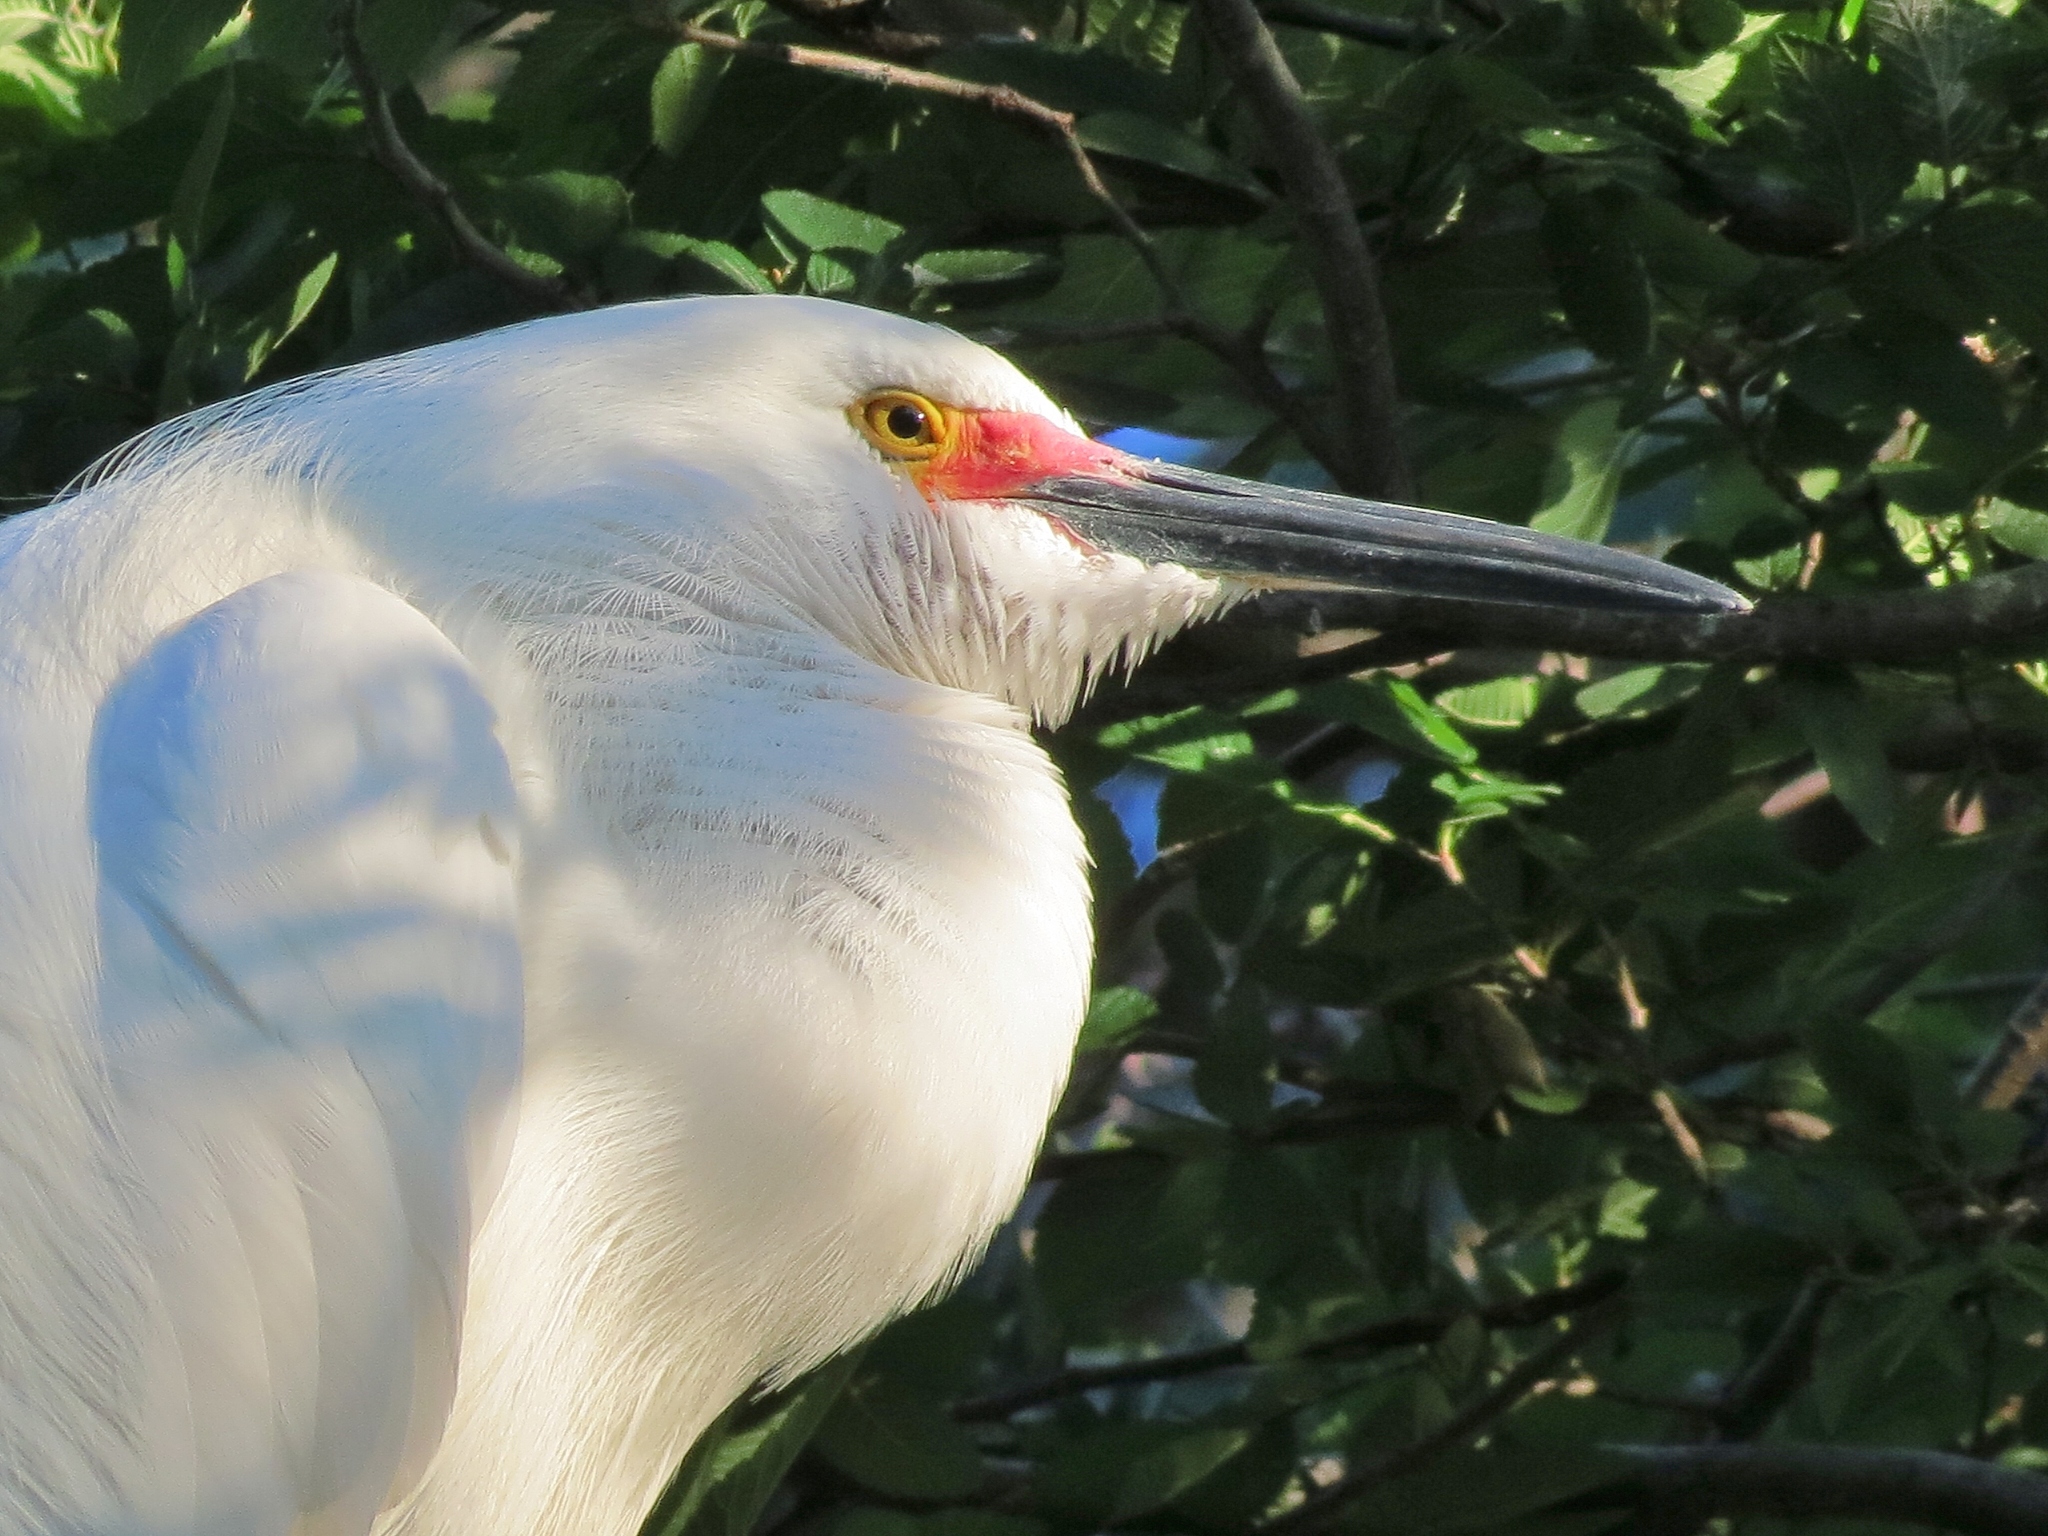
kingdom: Animalia
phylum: Chordata
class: Aves
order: Pelecaniformes
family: Ardeidae
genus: Egretta
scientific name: Egretta thula
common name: Snowy egret
